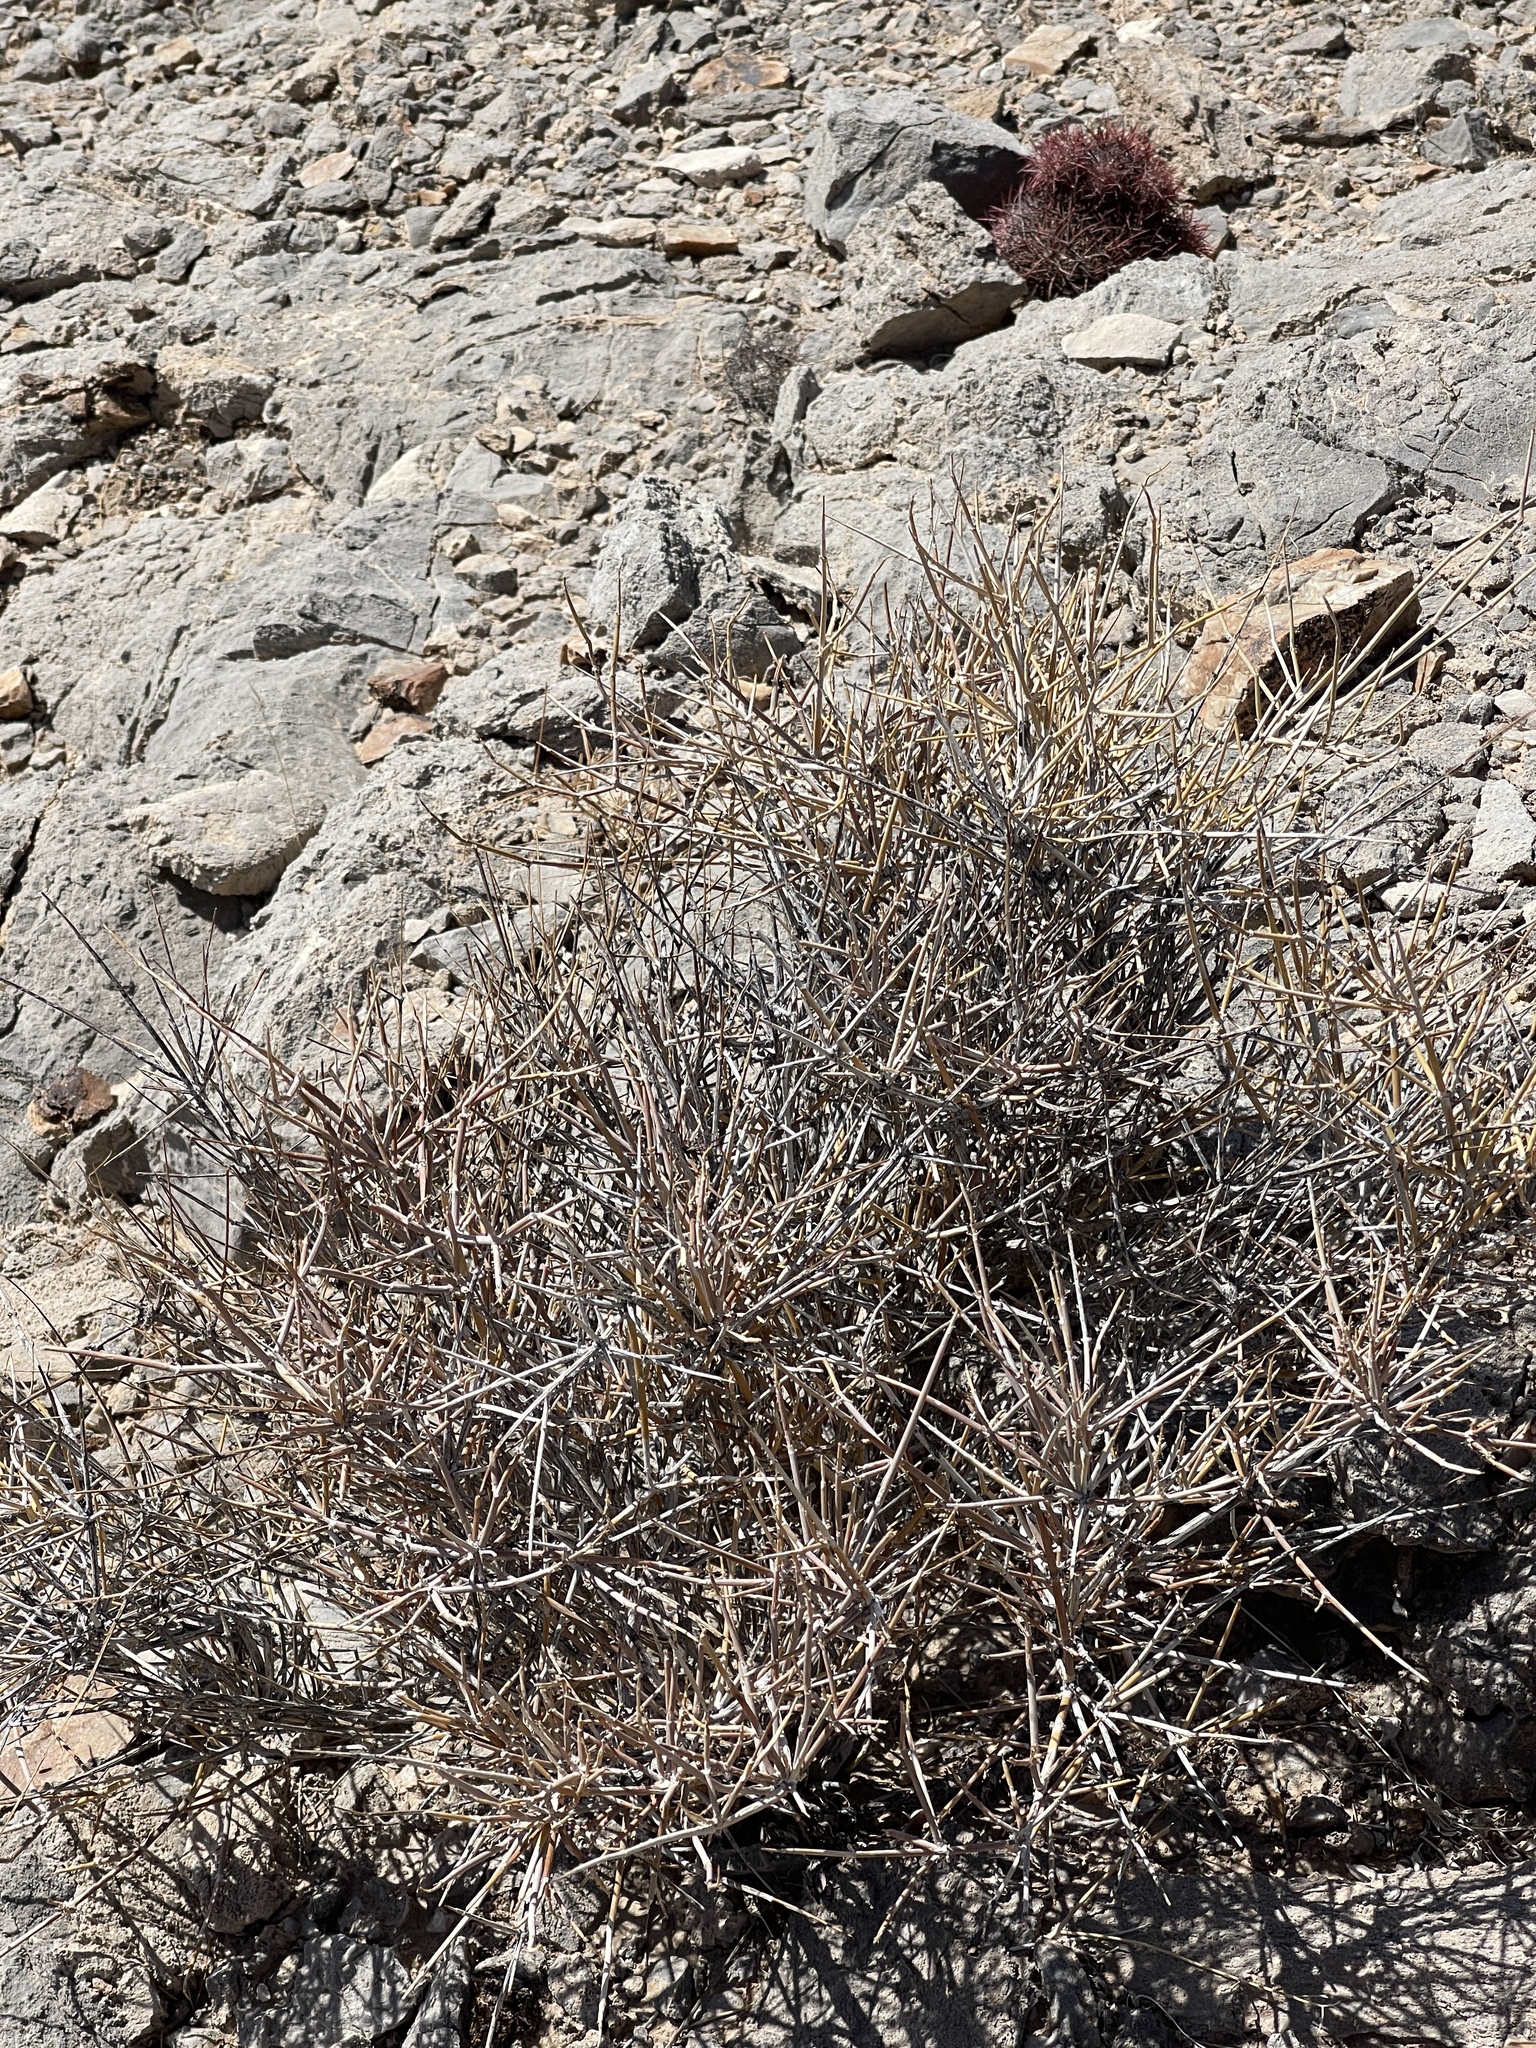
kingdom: Plantae
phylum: Tracheophyta
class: Gnetopsida
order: Ephedrales
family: Ephedraceae
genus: Ephedra
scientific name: Ephedra nevadensis
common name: Gray ephedra
